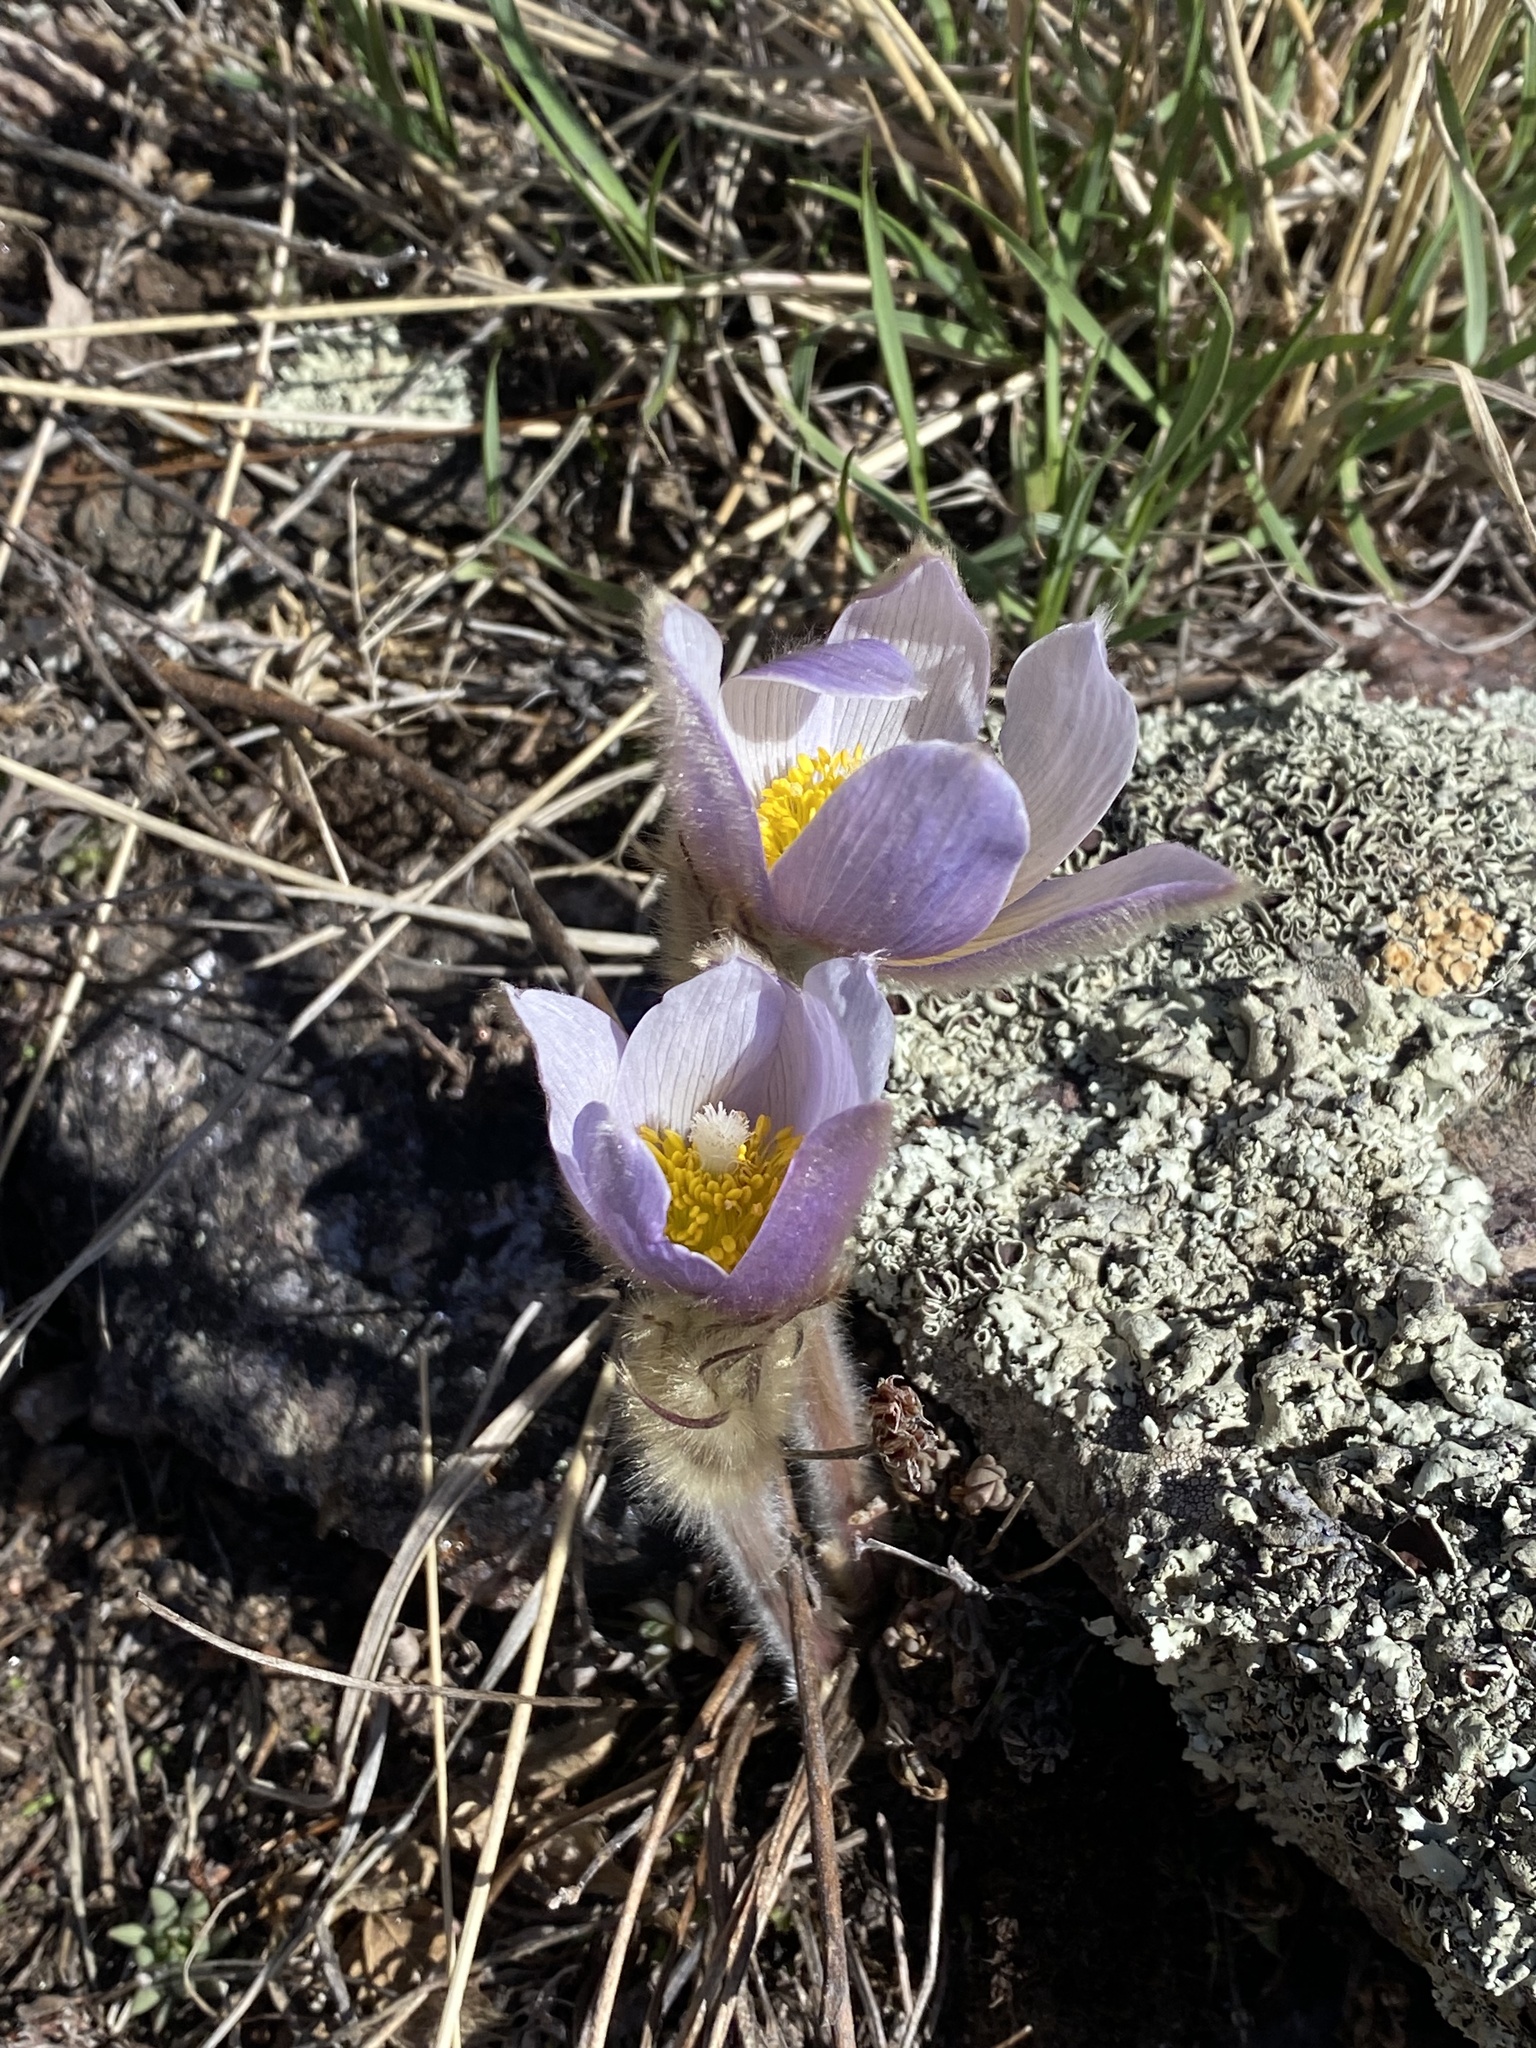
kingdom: Plantae
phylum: Tracheophyta
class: Magnoliopsida
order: Ranunculales
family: Ranunculaceae
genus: Pulsatilla
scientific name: Pulsatilla nuttalliana
